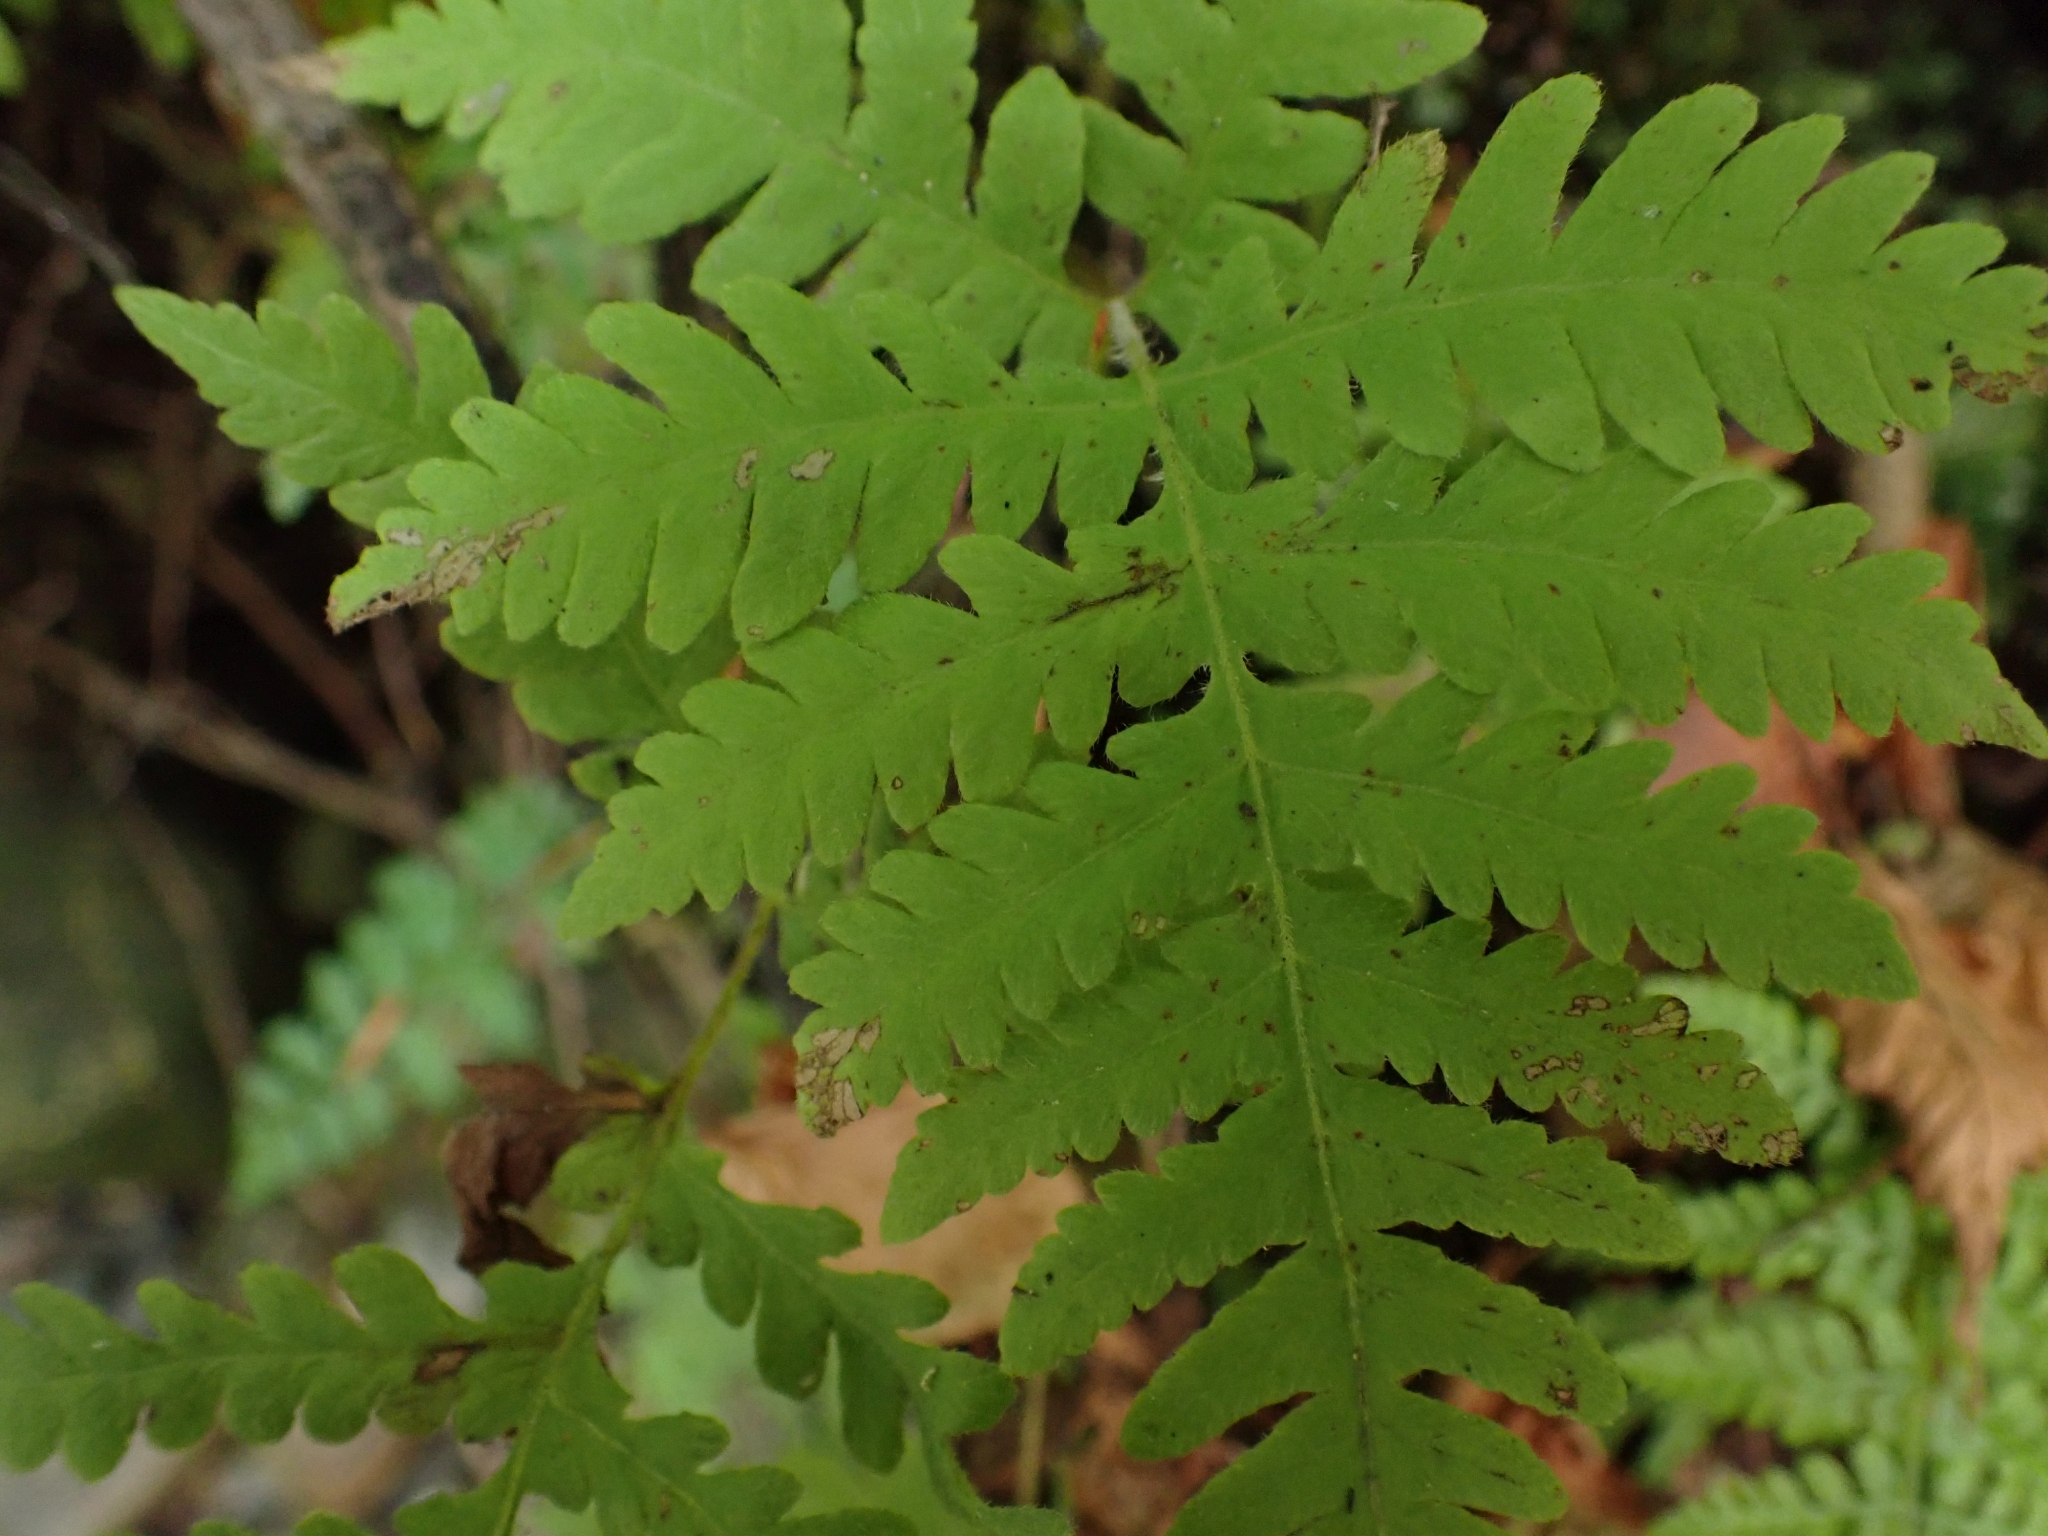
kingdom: Plantae
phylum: Tracheophyta
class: Polypodiopsida
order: Polypodiales
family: Thelypteridaceae
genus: Phegopteris
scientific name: Phegopteris connectilis
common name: Beech fern
